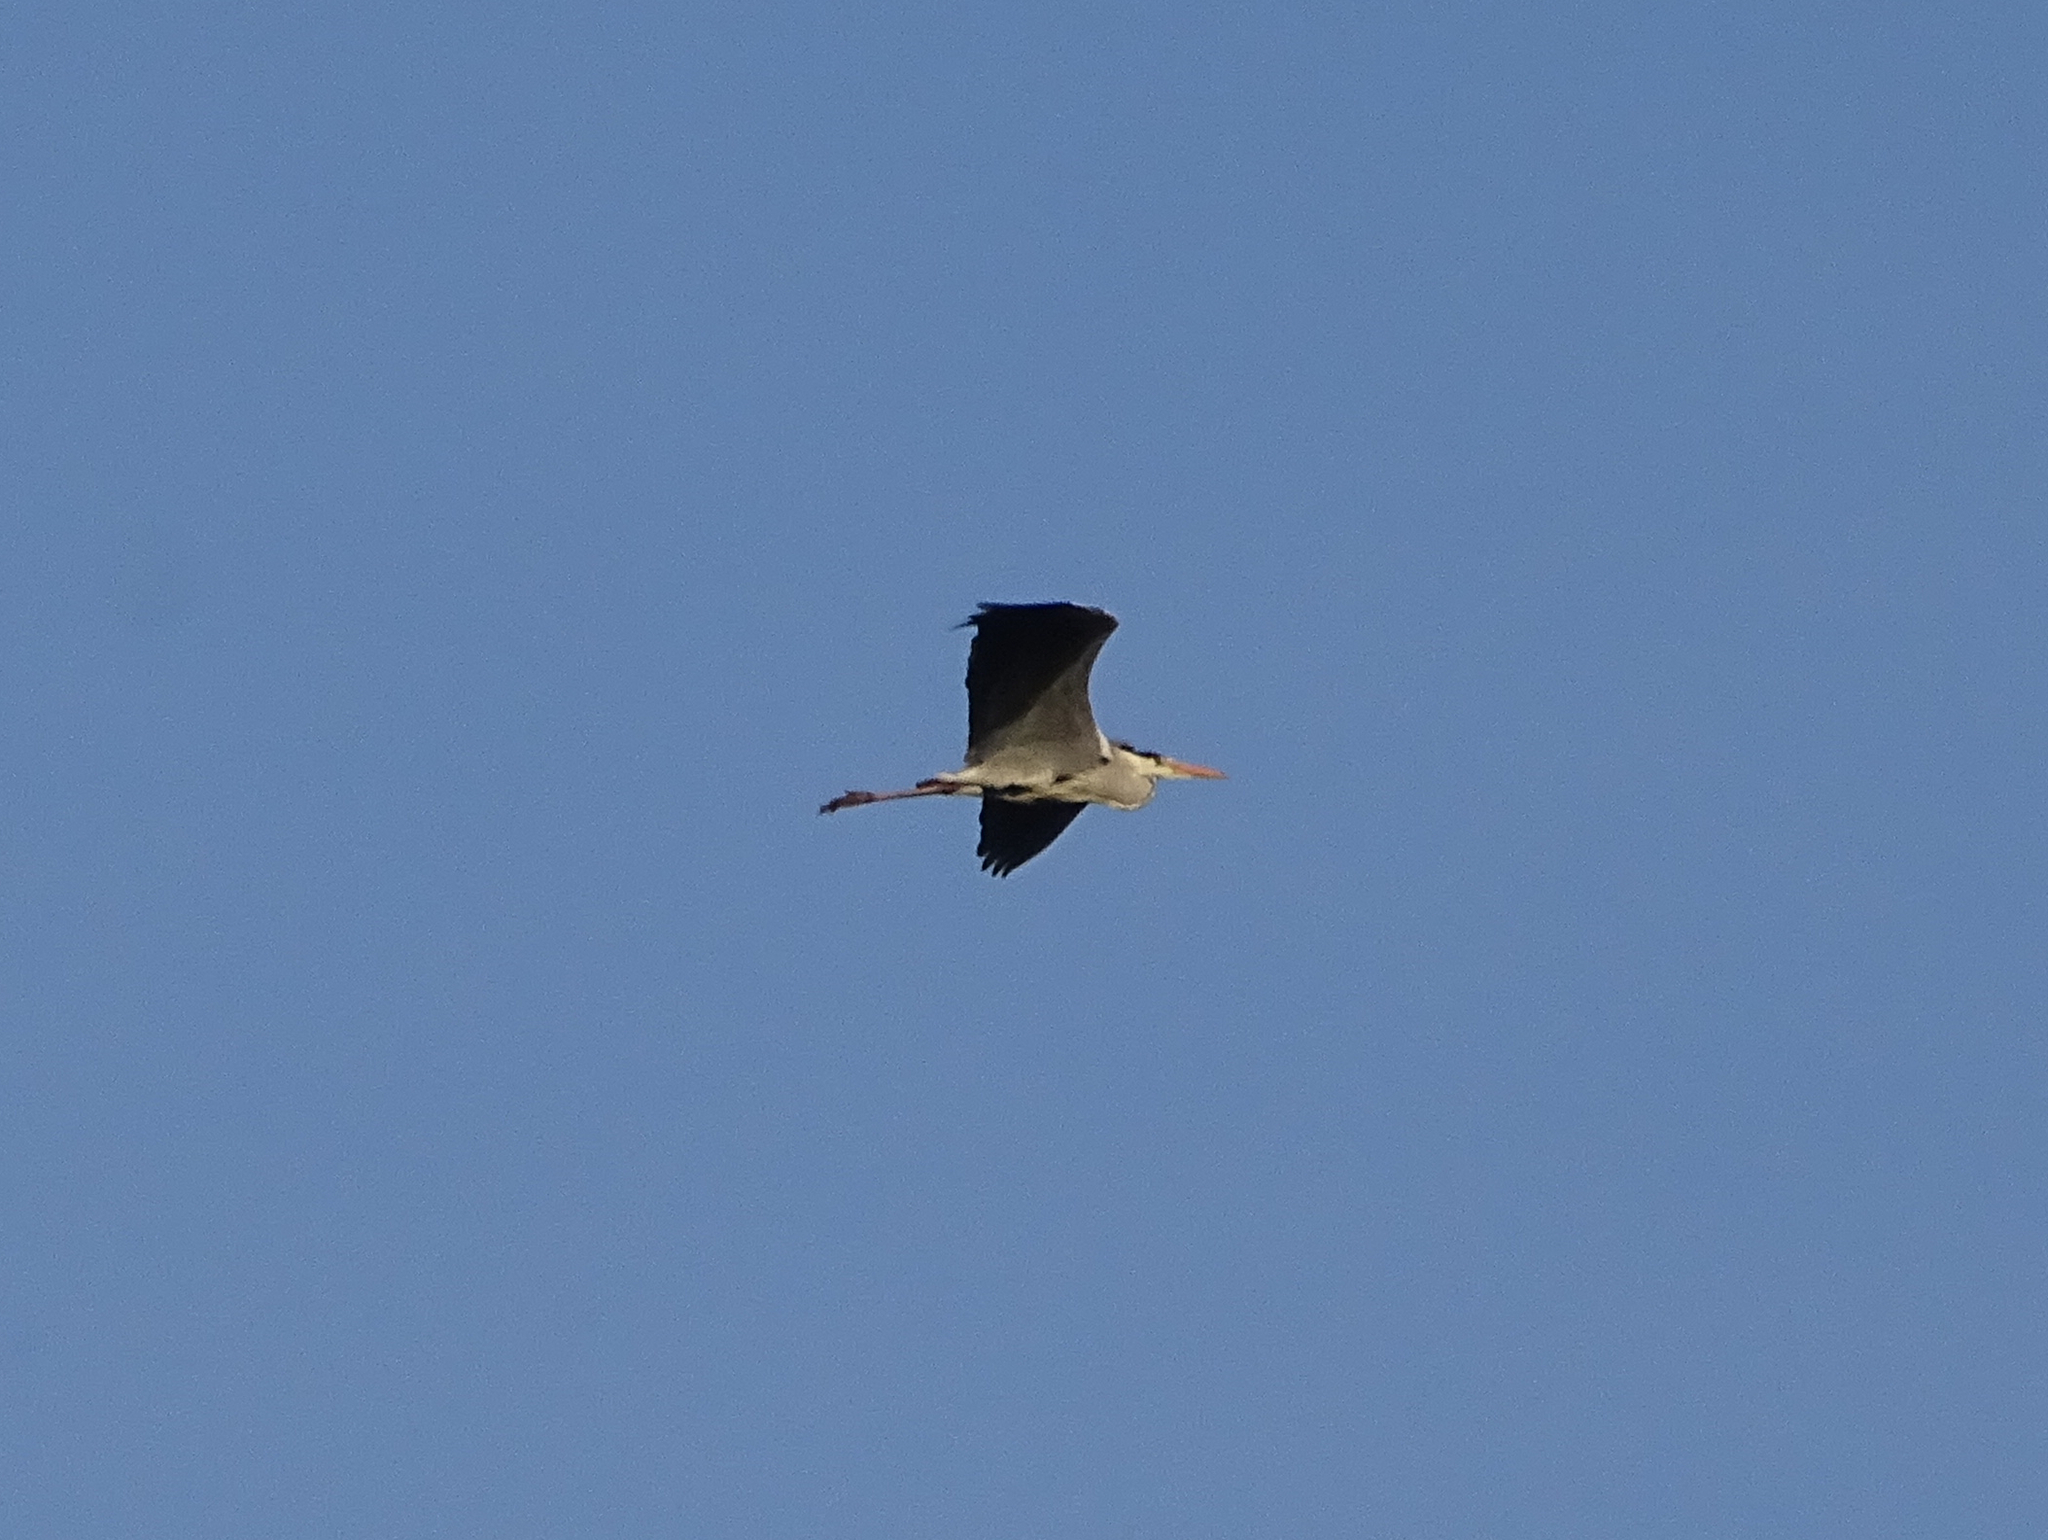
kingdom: Animalia
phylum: Chordata
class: Aves
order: Pelecaniformes
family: Ardeidae
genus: Ardea
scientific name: Ardea cinerea
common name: Grey heron
